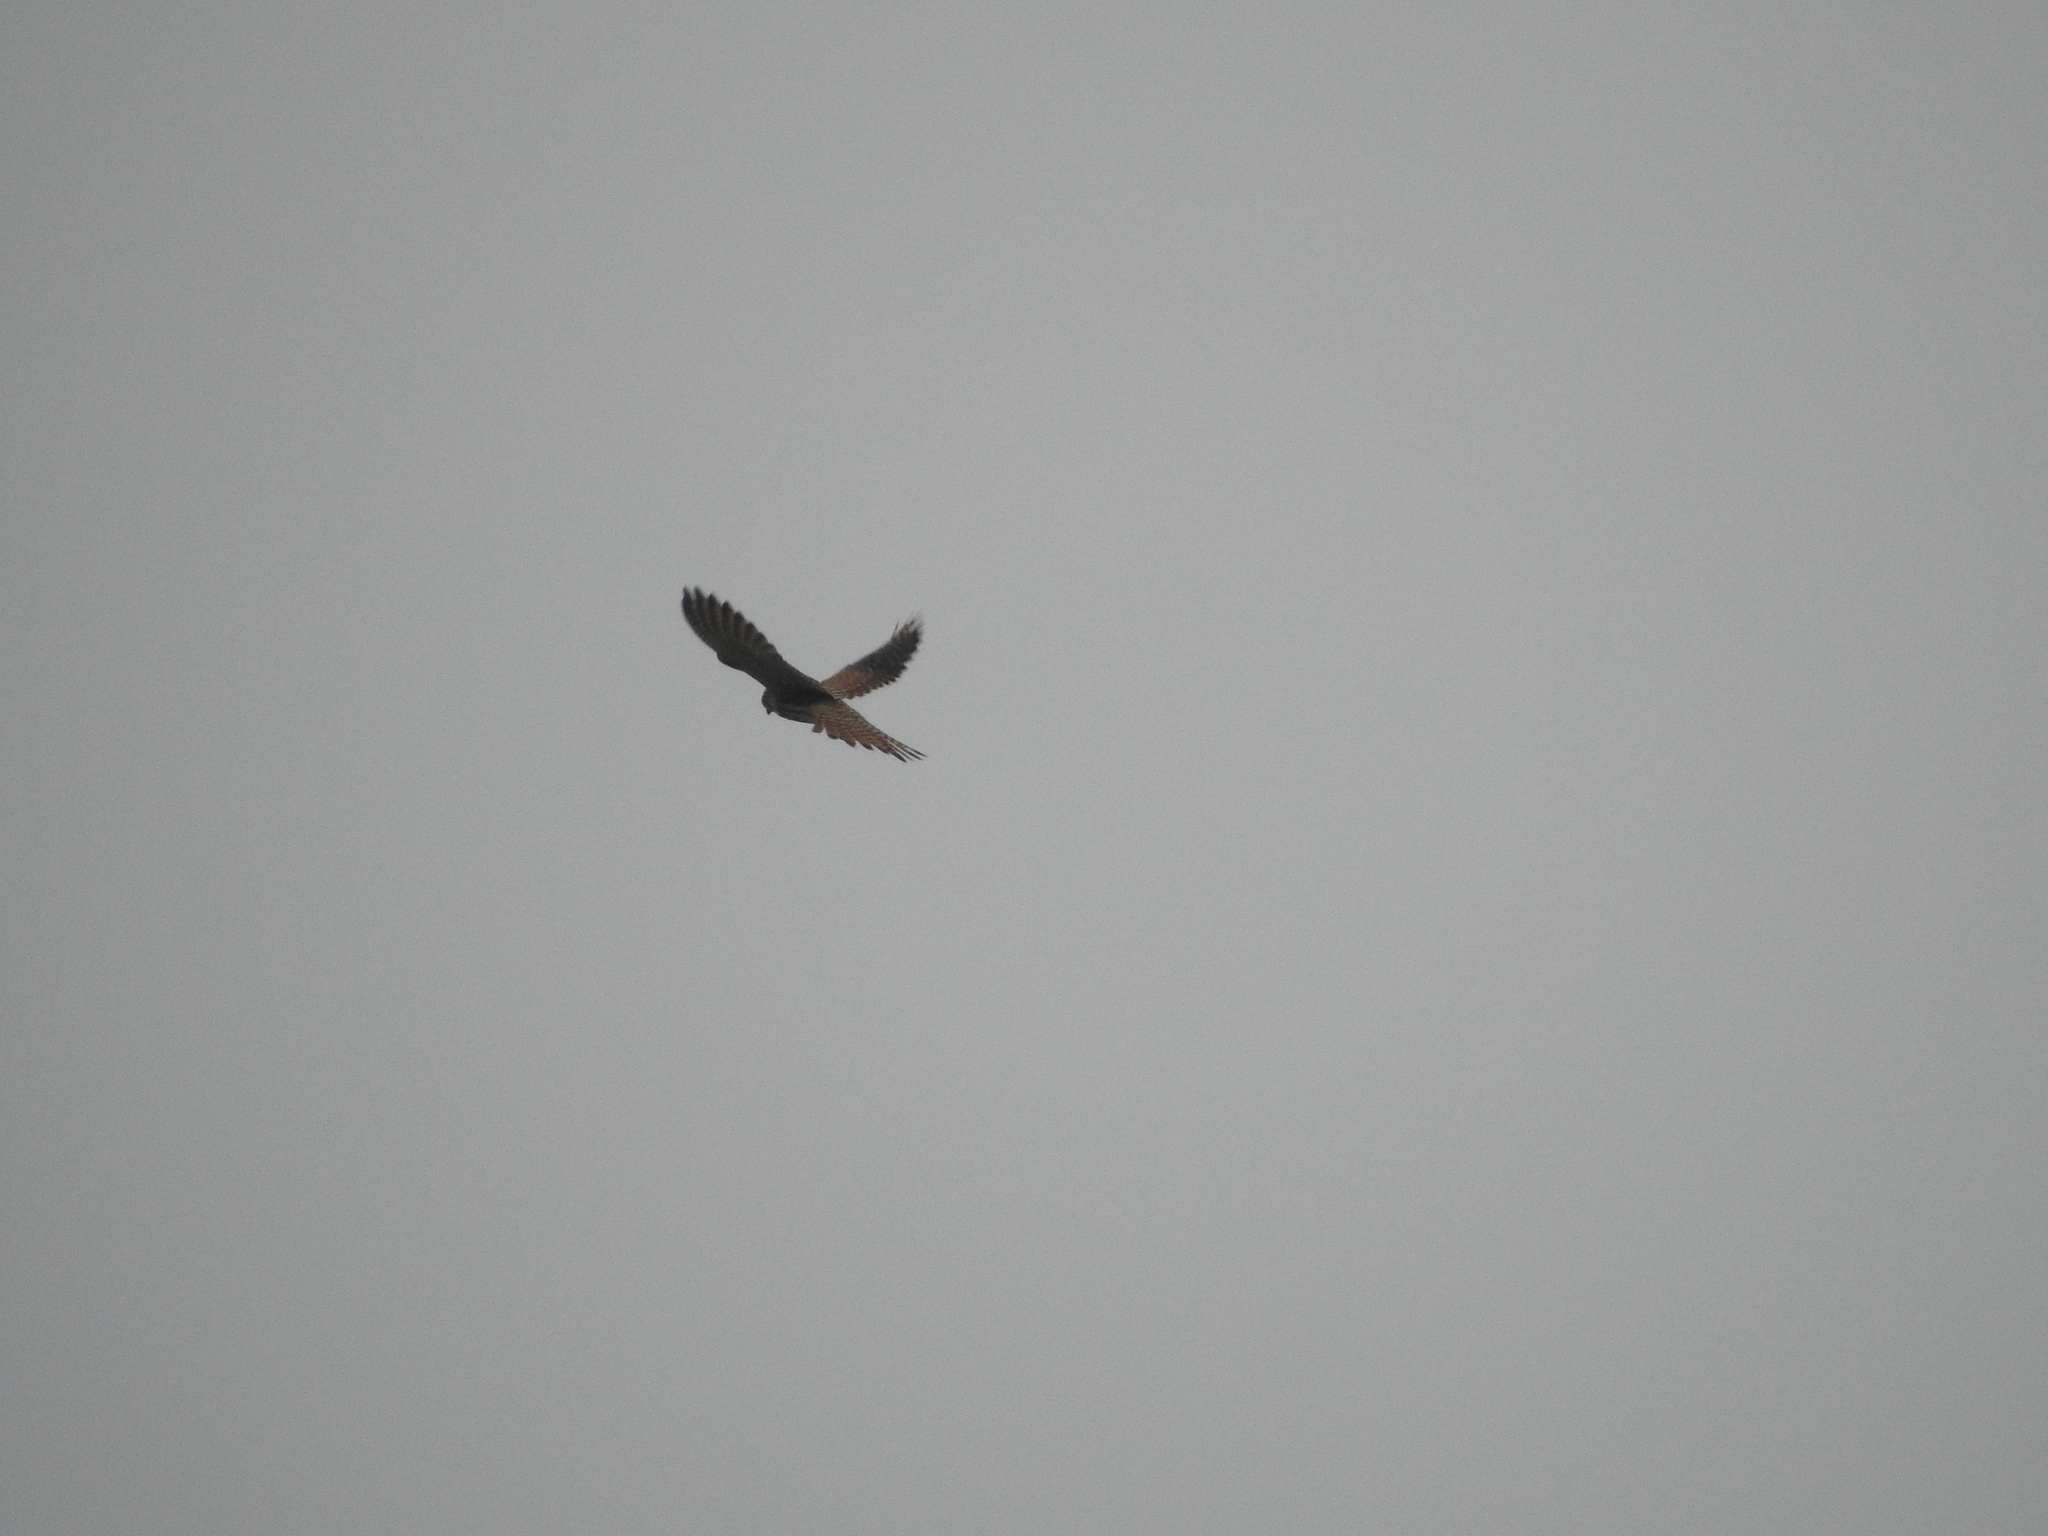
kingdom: Animalia
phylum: Chordata
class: Aves
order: Falconiformes
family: Falconidae
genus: Falco
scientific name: Falco tinnunculus
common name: Common kestrel
